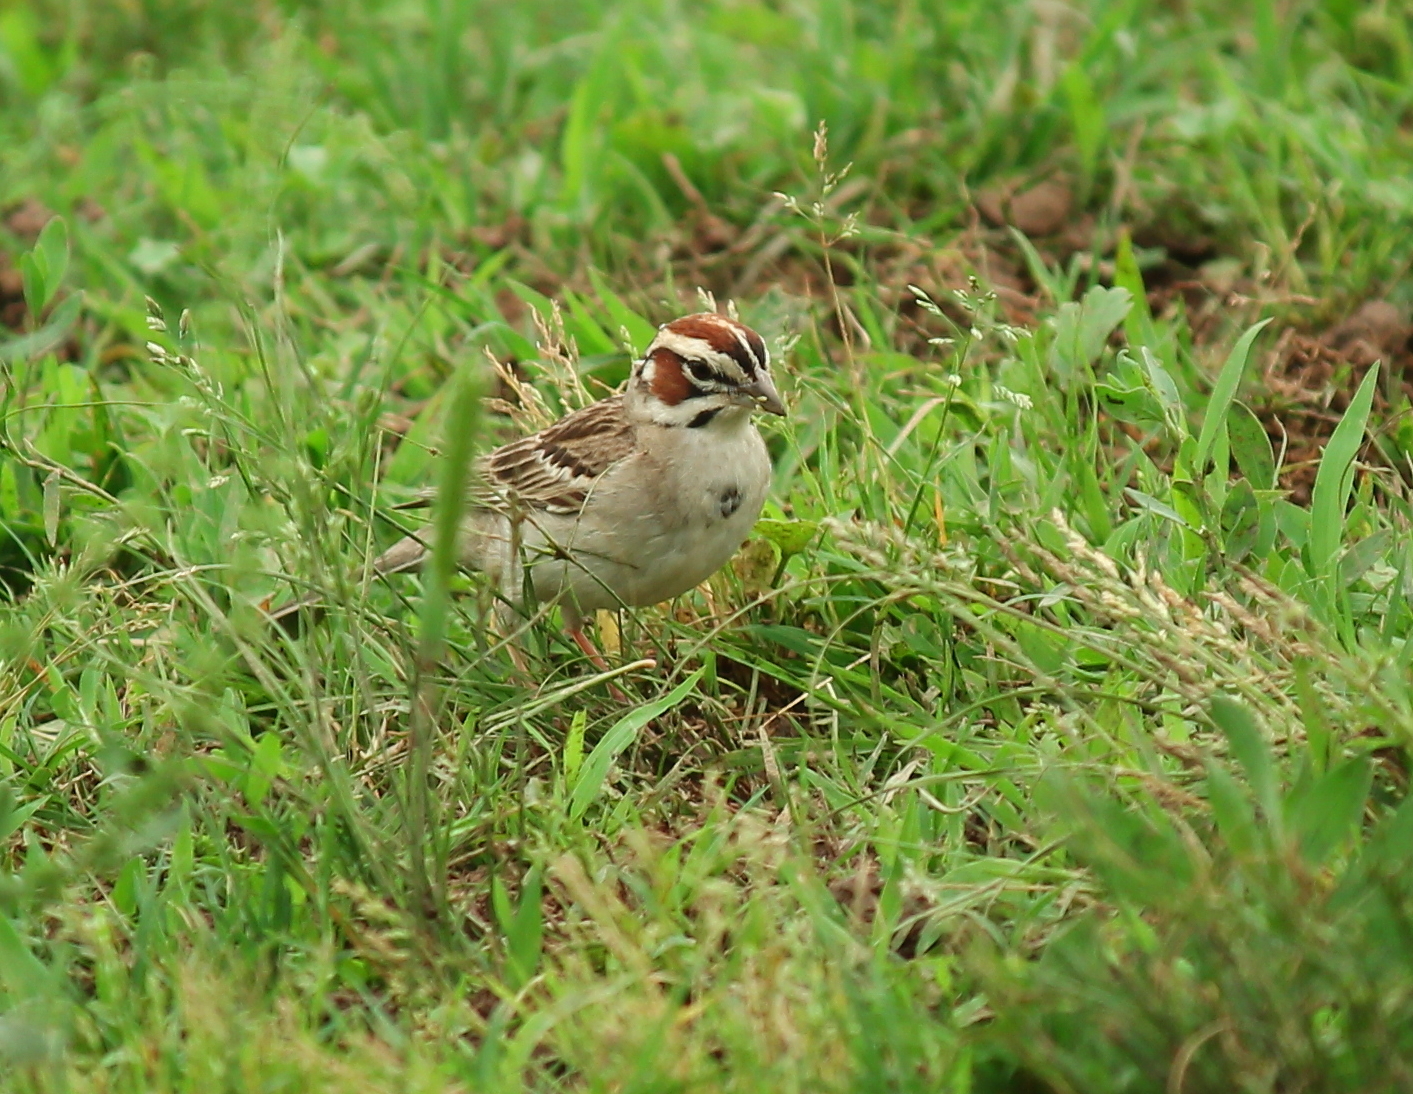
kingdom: Animalia
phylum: Chordata
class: Aves
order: Passeriformes
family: Passerellidae
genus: Chondestes
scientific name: Chondestes grammacus
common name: Lark sparrow
